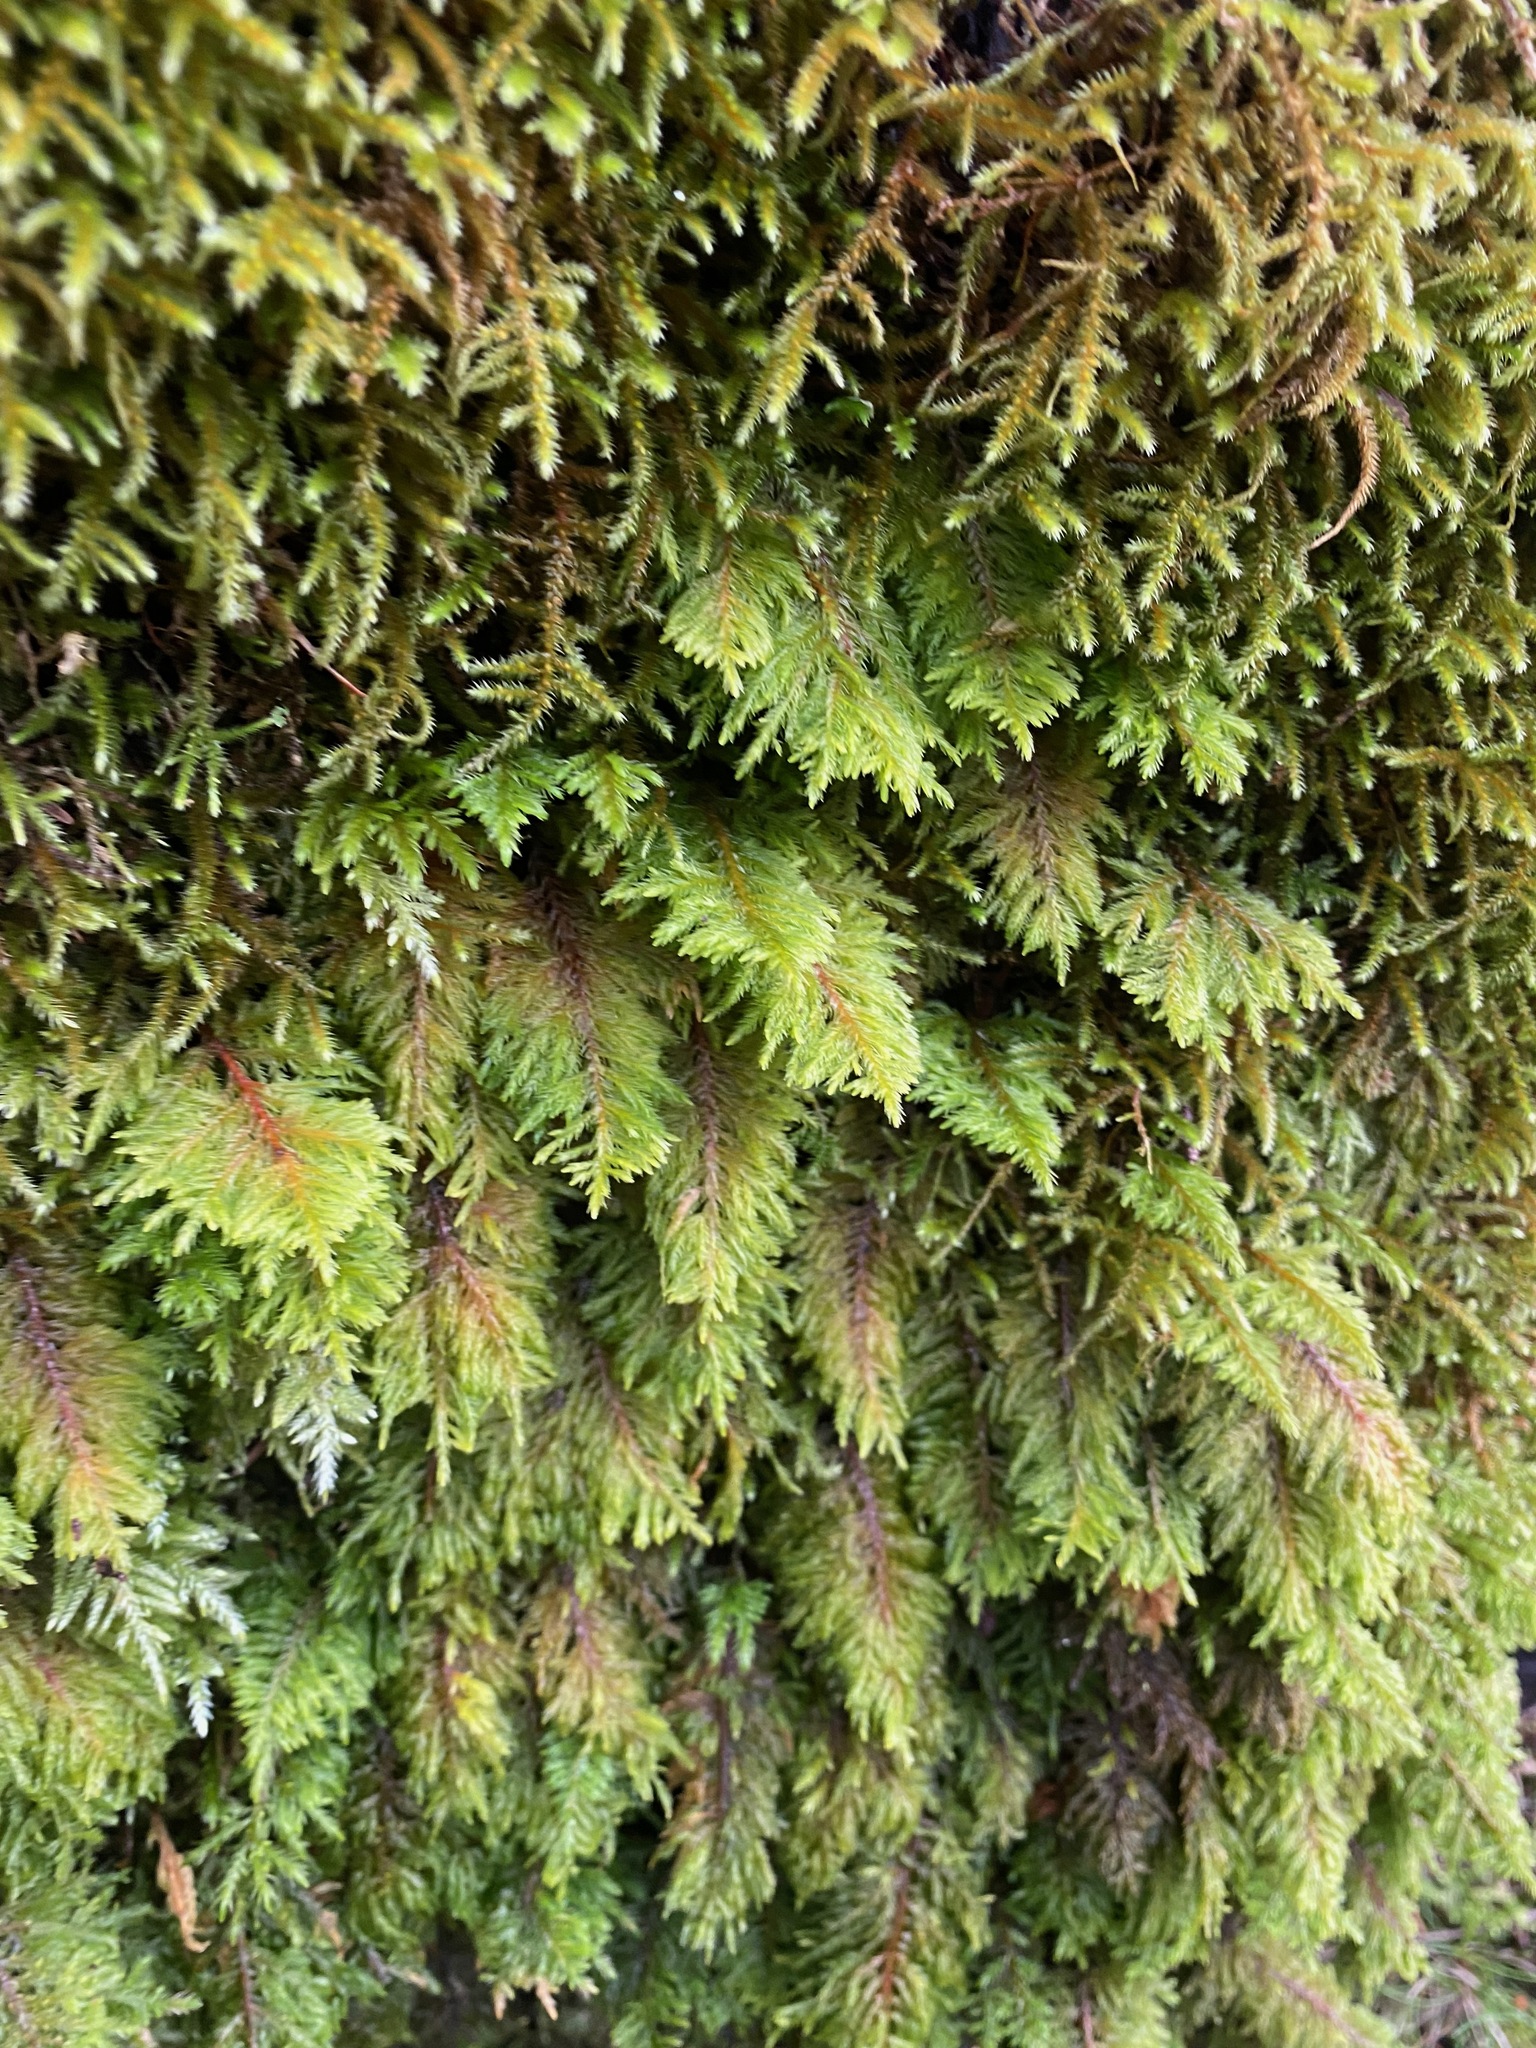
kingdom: Plantae
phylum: Bryophyta
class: Bryopsida
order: Hypnales
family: Cryphaeaceae
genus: Dendroalsia
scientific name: Dendroalsia abietina
